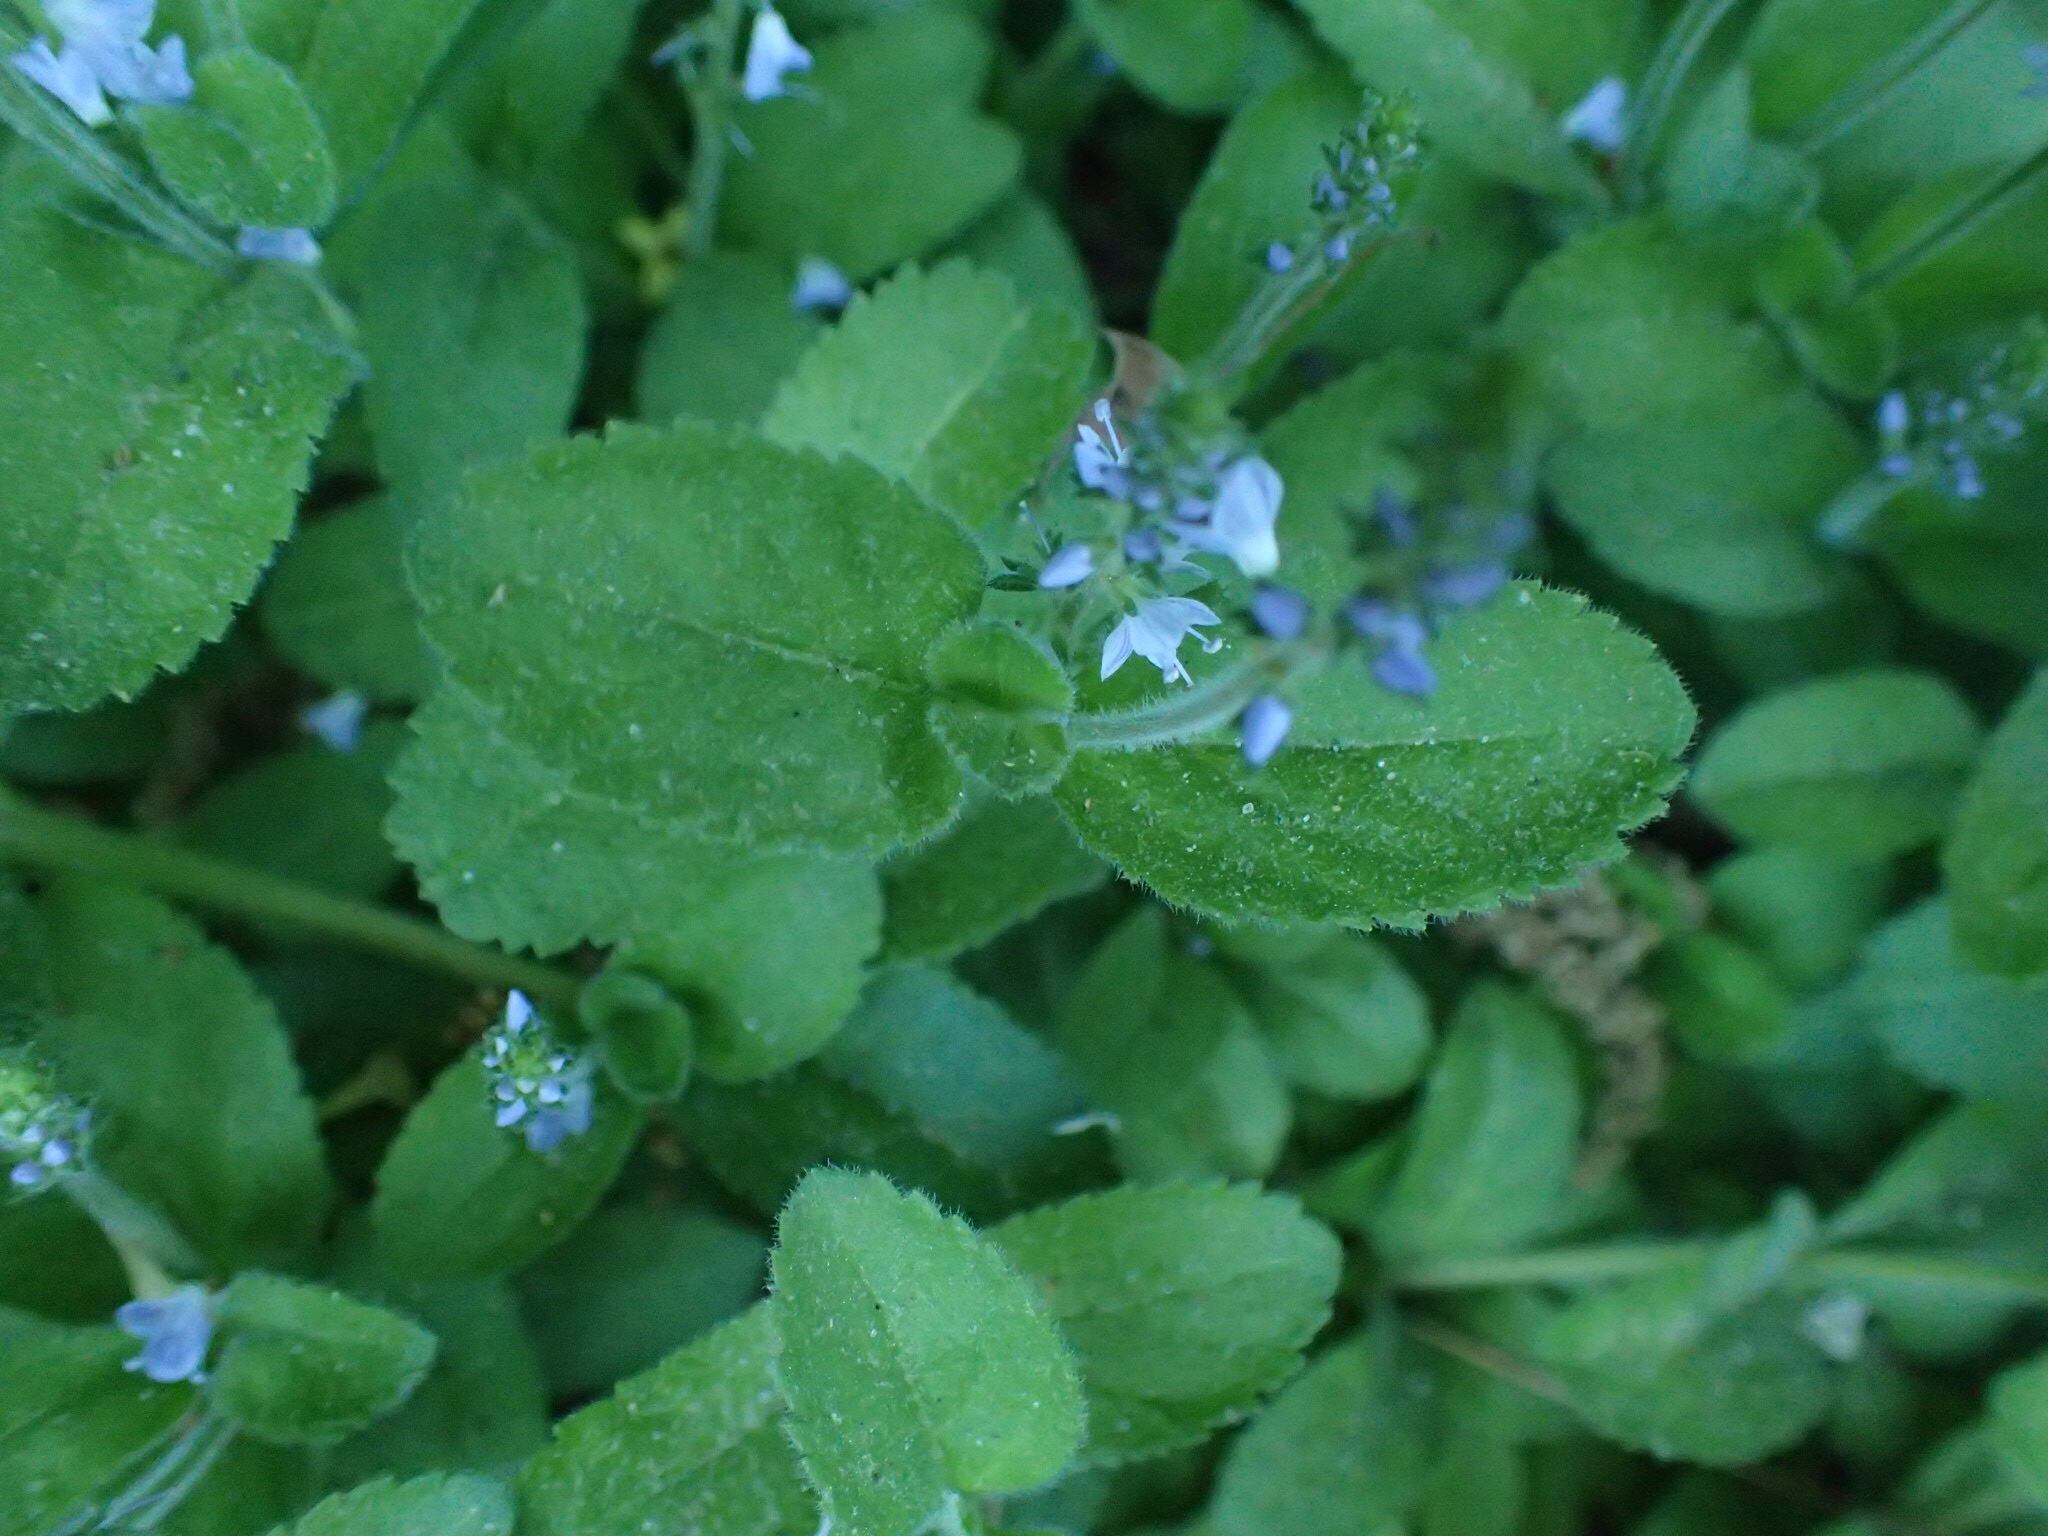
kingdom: Plantae
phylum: Tracheophyta
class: Magnoliopsida
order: Lamiales
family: Plantaginaceae
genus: Veronica
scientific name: Veronica officinalis
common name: Common speedwell
